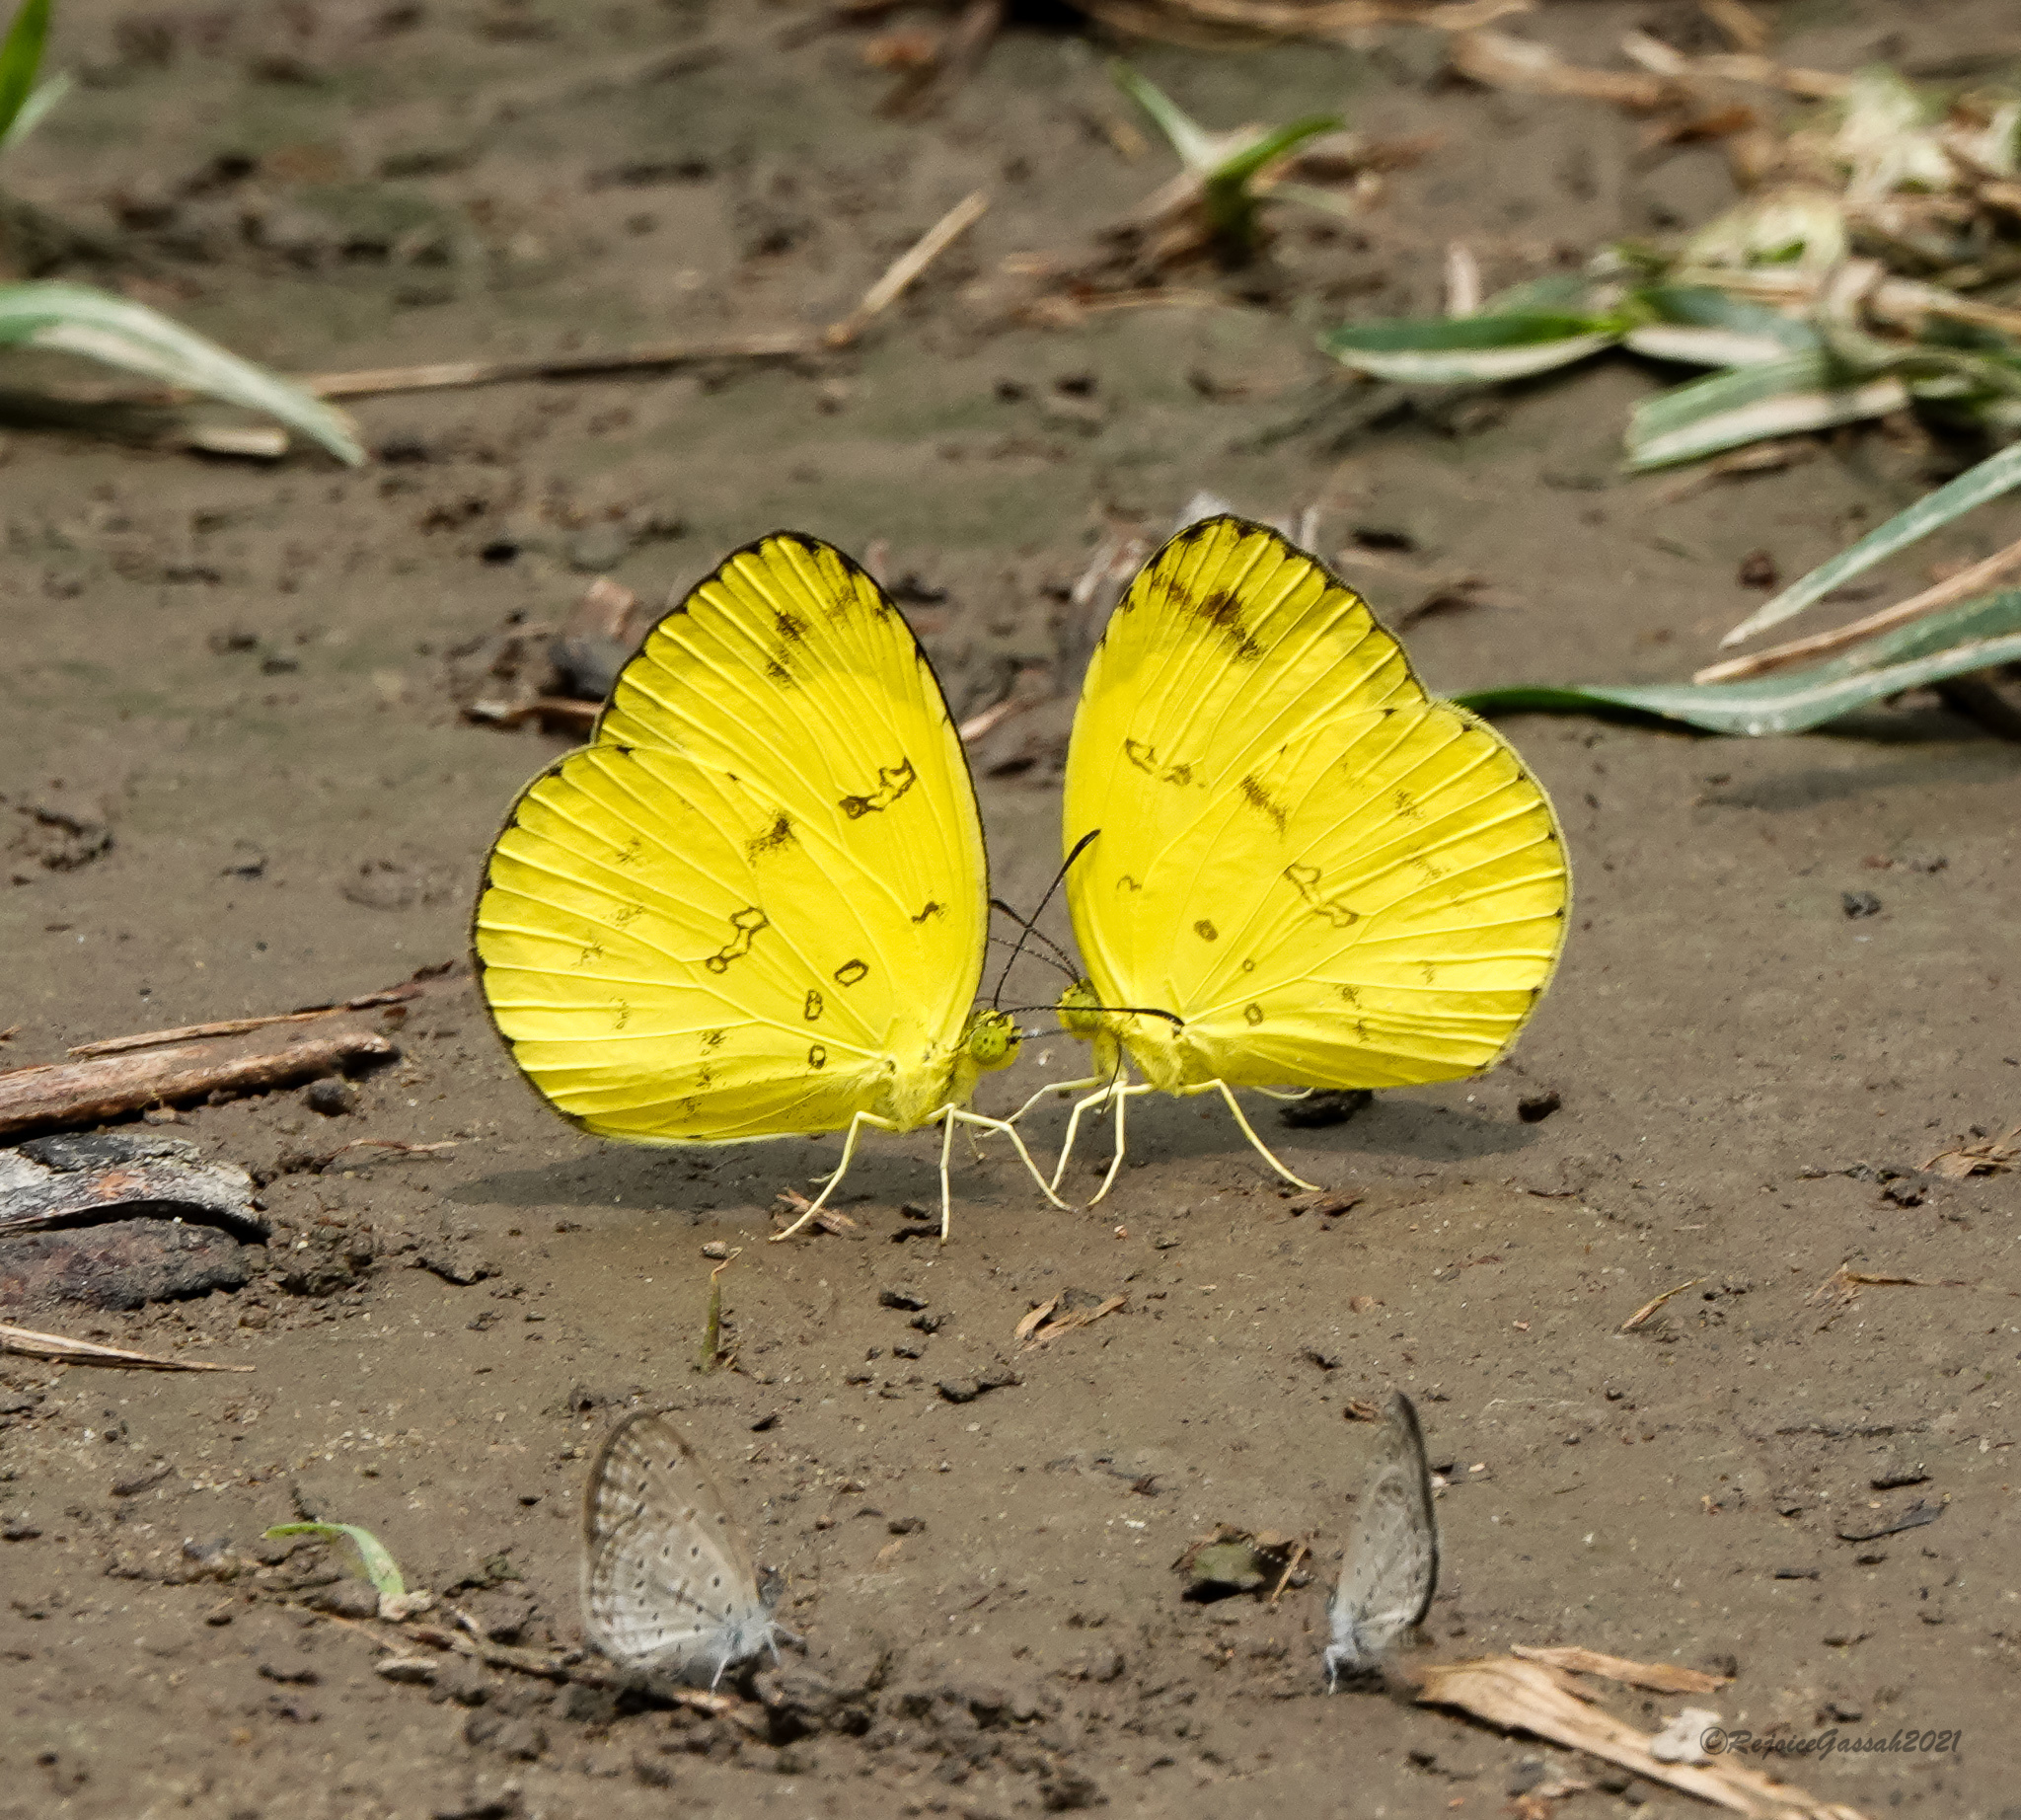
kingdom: Animalia
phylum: Arthropoda
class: Insecta
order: Lepidoptera
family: Pieridae
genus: Eurema
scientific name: Eurema andersoni
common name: One-spot yellow grass
